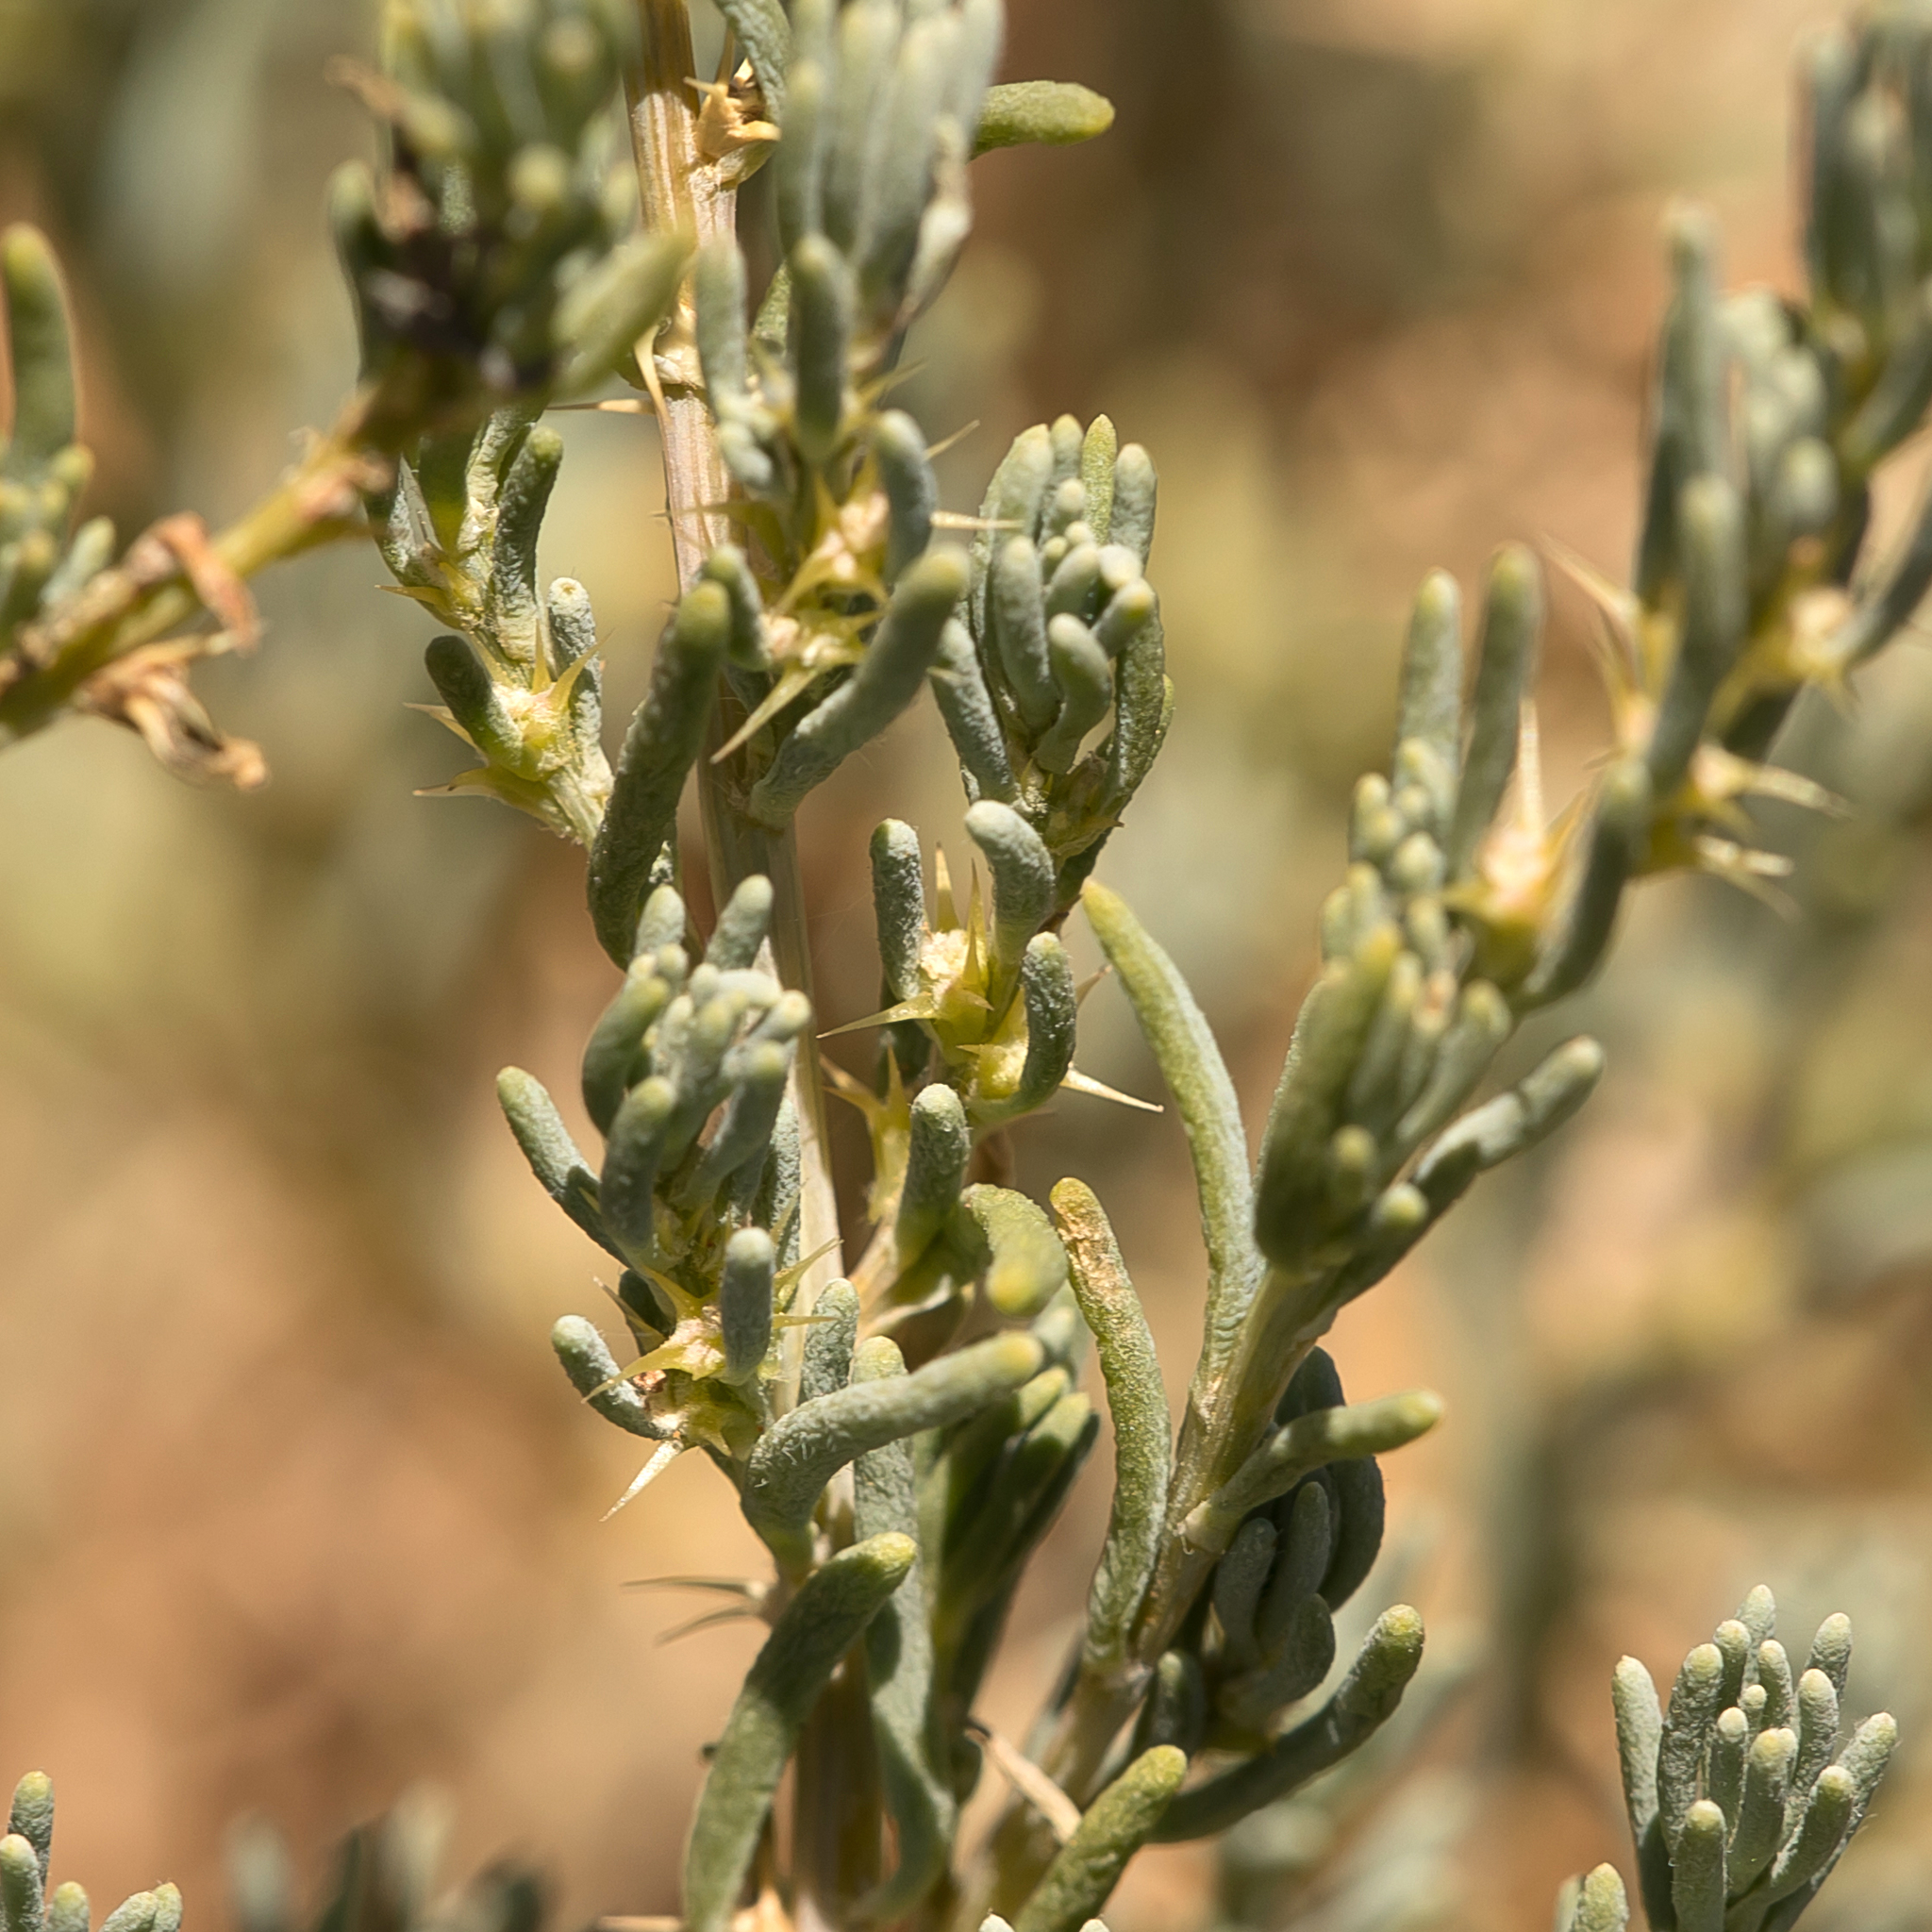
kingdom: Plantae
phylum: Tracheophyta
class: Magnoliopsida
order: Caryophyllales
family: Amaranthaceae
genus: Sclerolaena
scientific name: Sclerolaena calcarata
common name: Red copperbur
